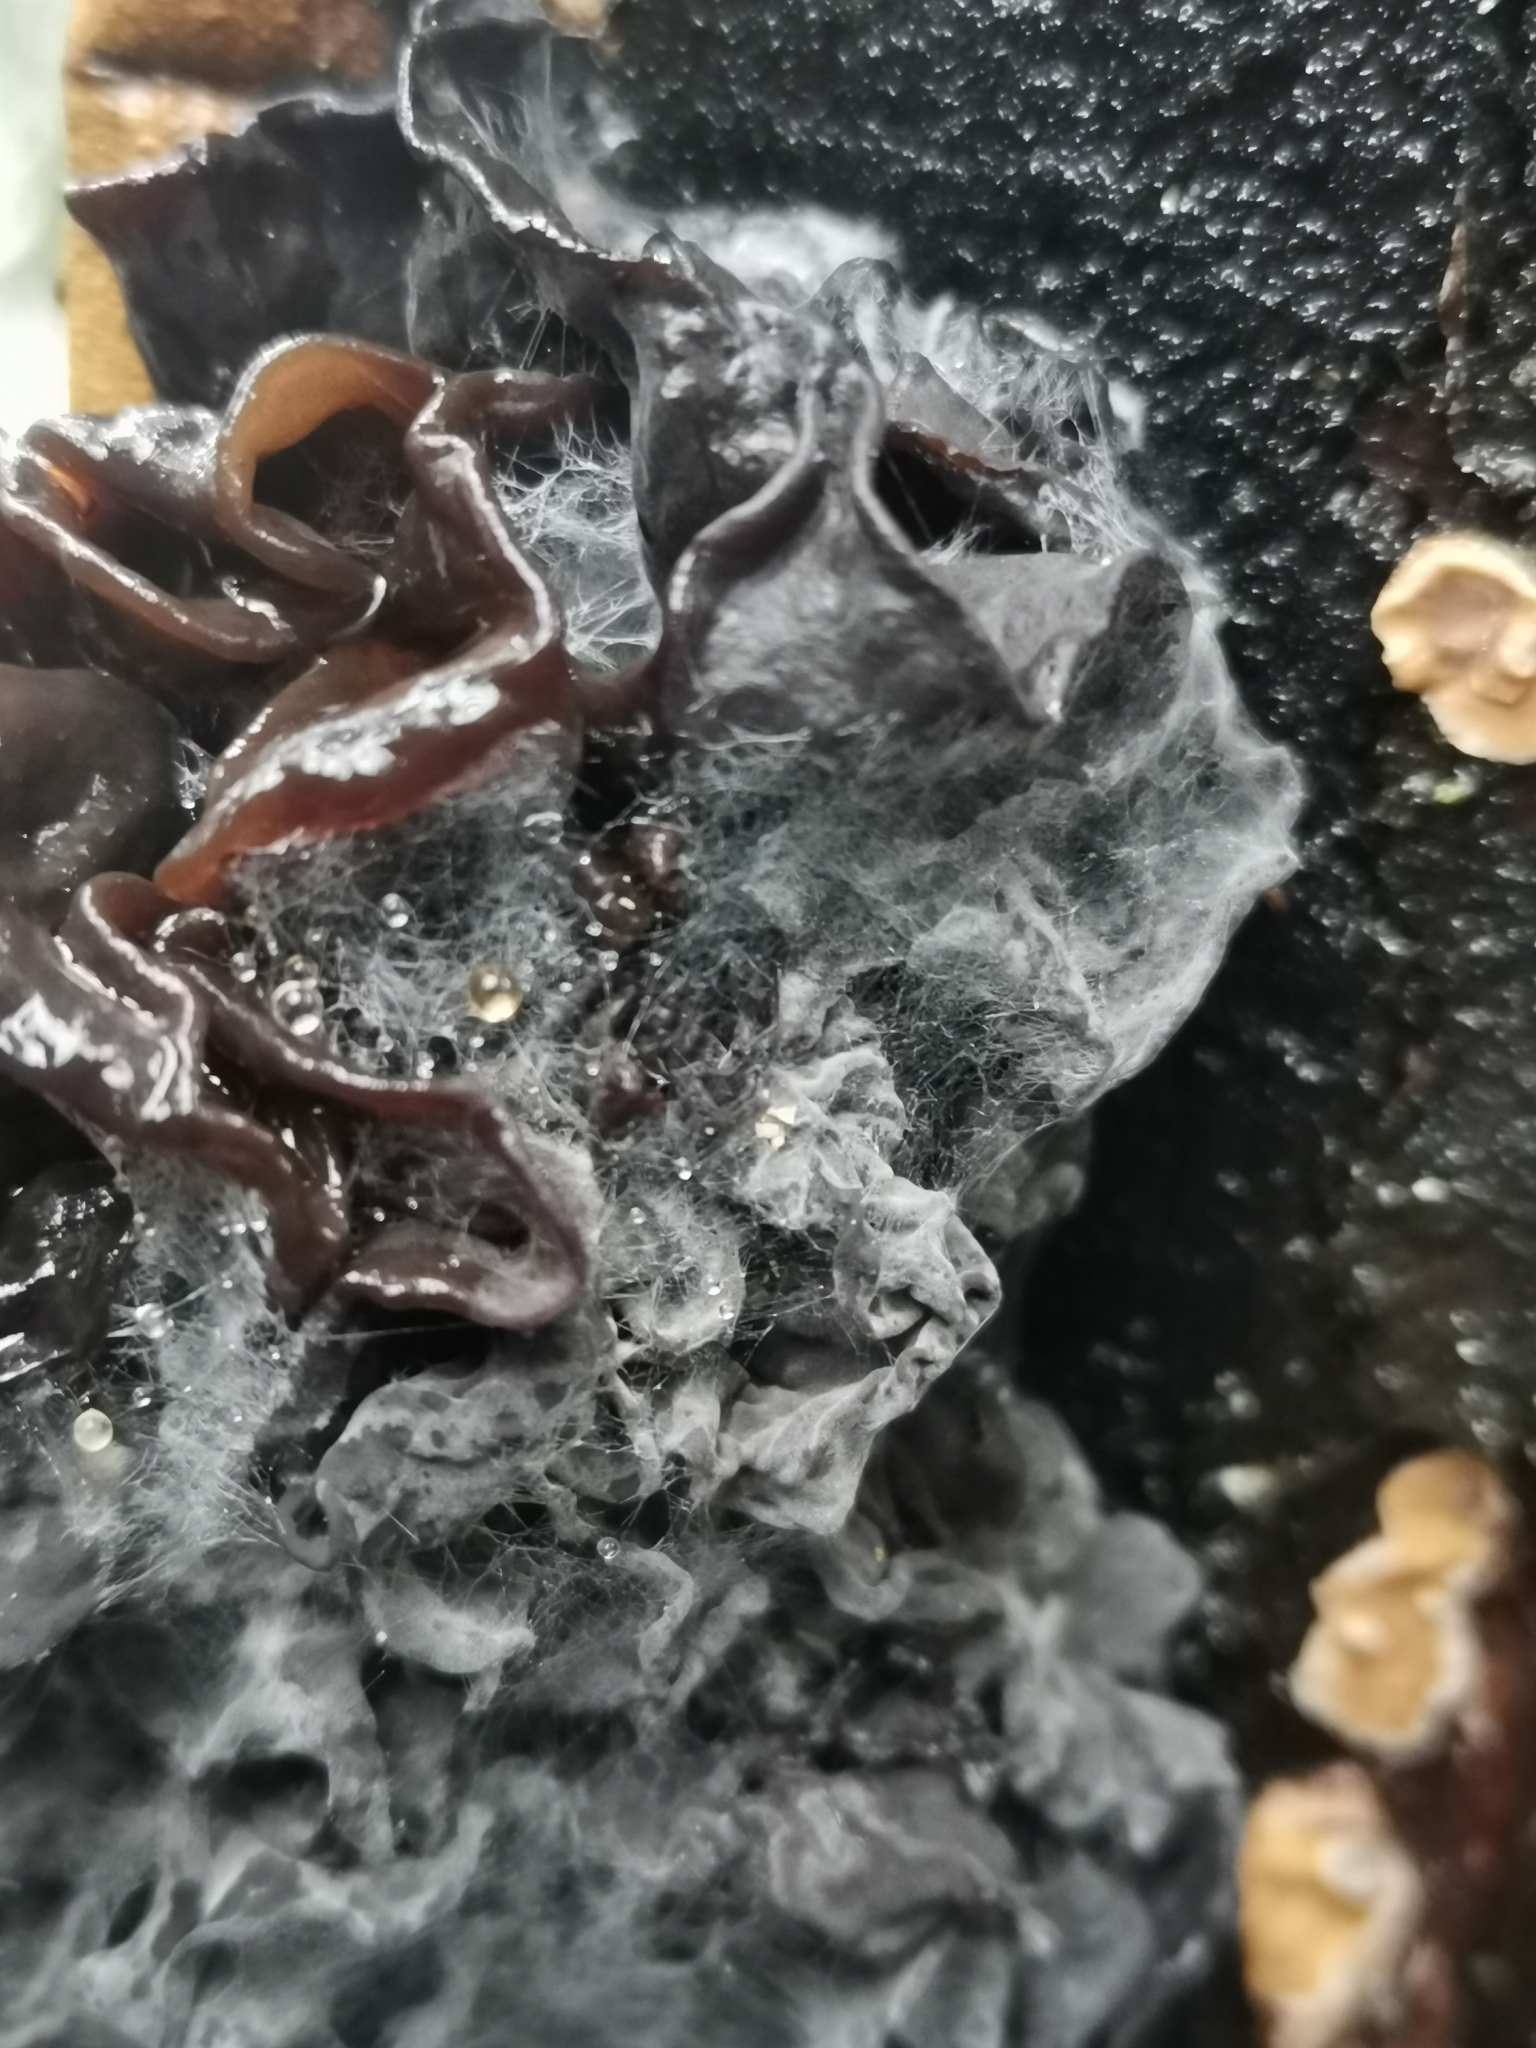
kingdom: Fungi
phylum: Basidiomycota
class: Tremellomycetes
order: Tremellales
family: Tremellaceae
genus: Phaeotremella
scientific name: Phaeotremella frondosa
